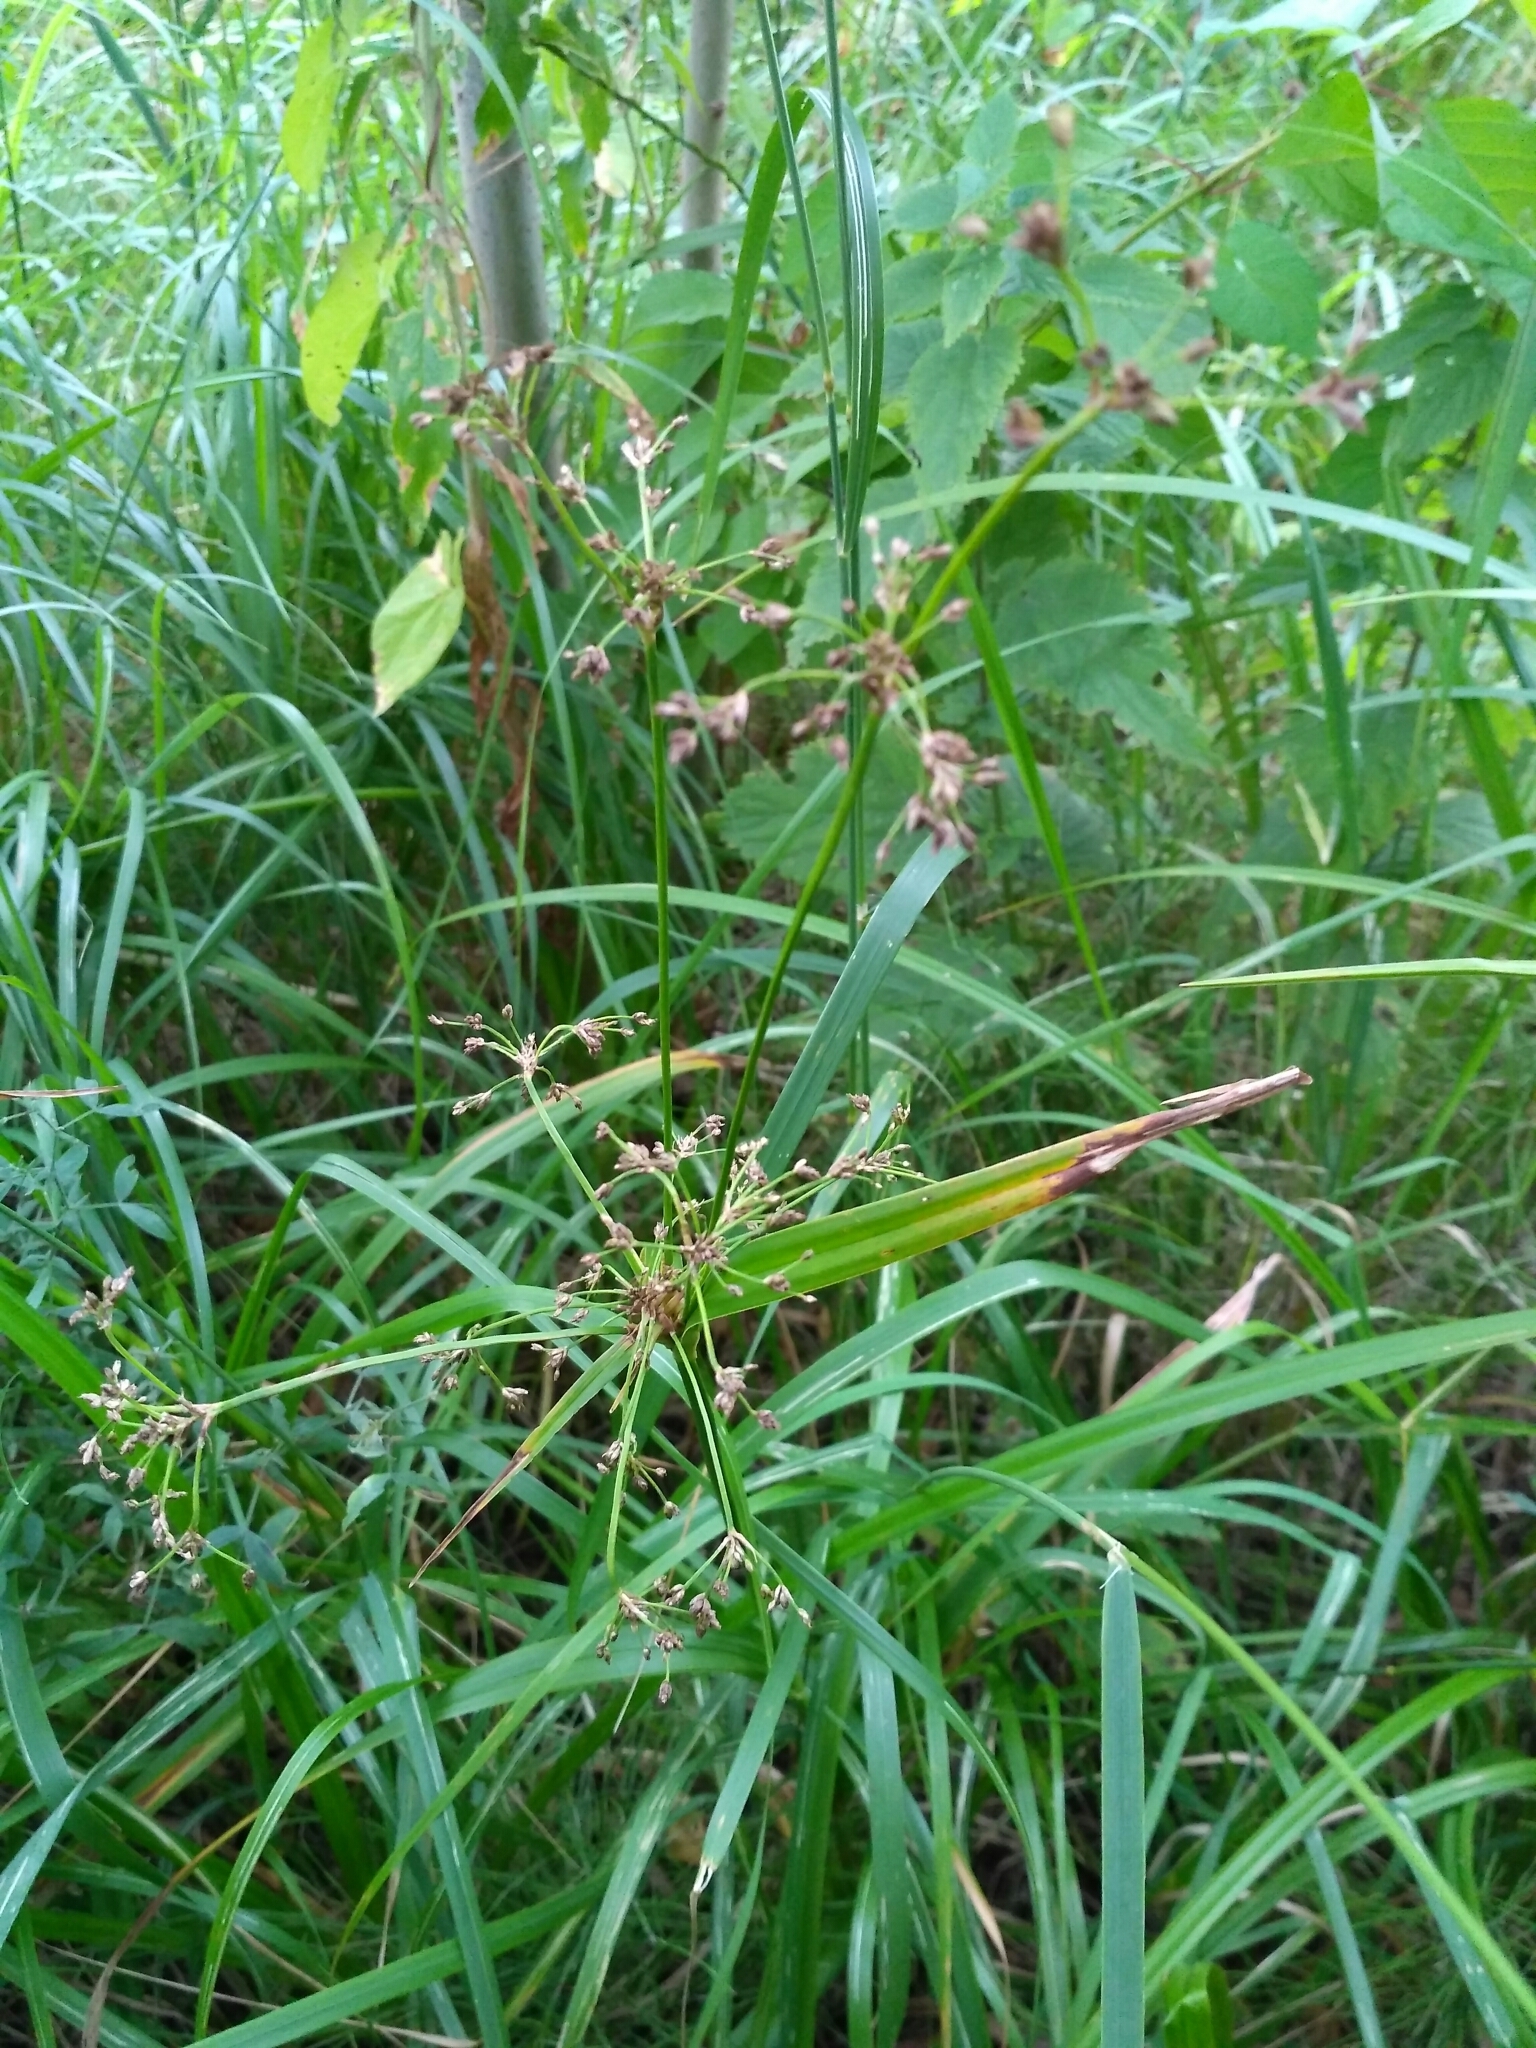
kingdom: Plantae
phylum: Tracheophyta
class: Liliopsida
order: Poales
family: Cyperaceae
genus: Scirpus
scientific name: Scirpus sylvaticus
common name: Wood club-rush
